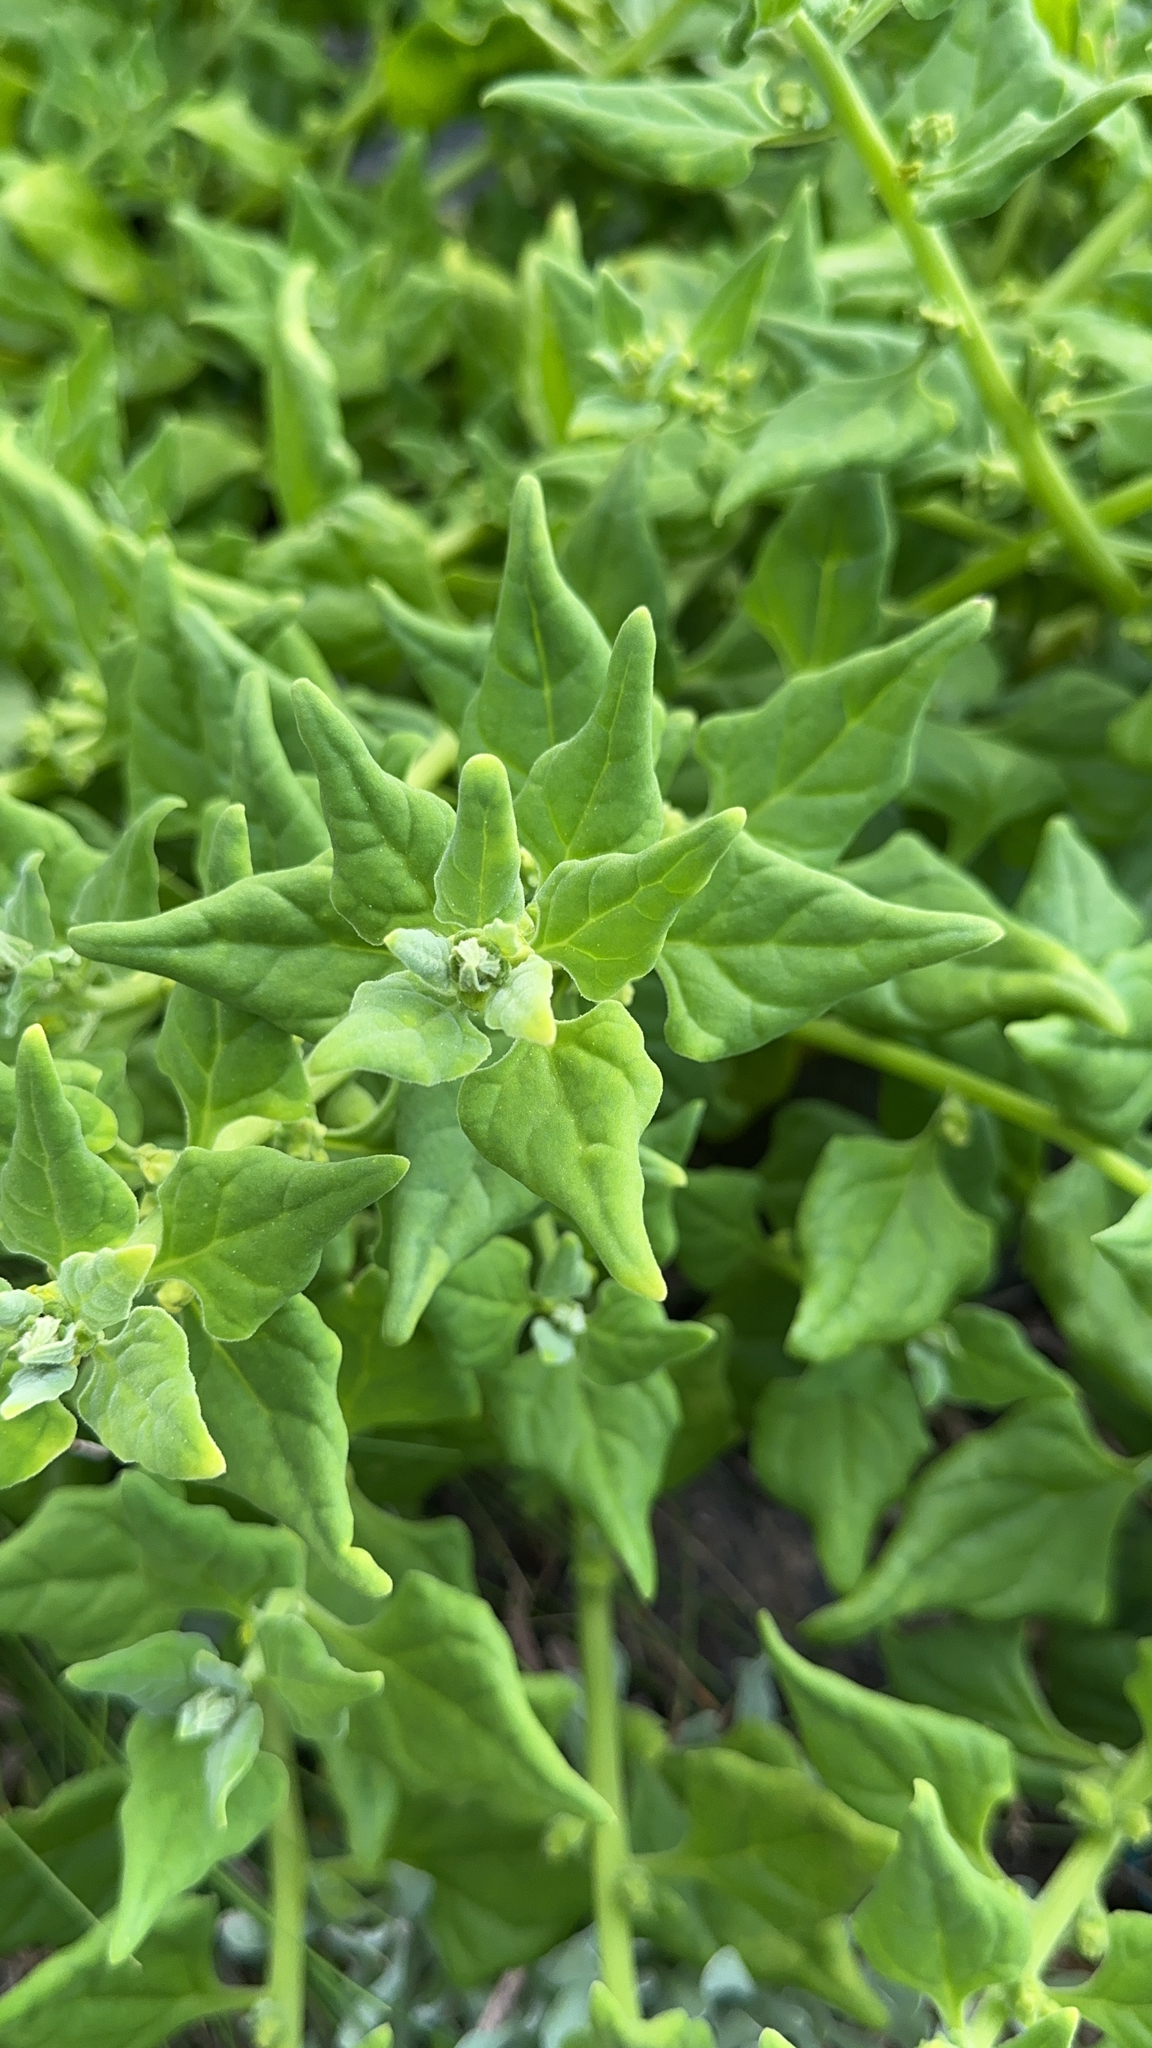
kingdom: Plantae
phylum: Tracheophyta
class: Magnoliopsida
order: Caryophyllales
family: Aizoaceae
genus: Tetragonia
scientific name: Tetragonia tetragonoides
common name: New zealand-spinach
